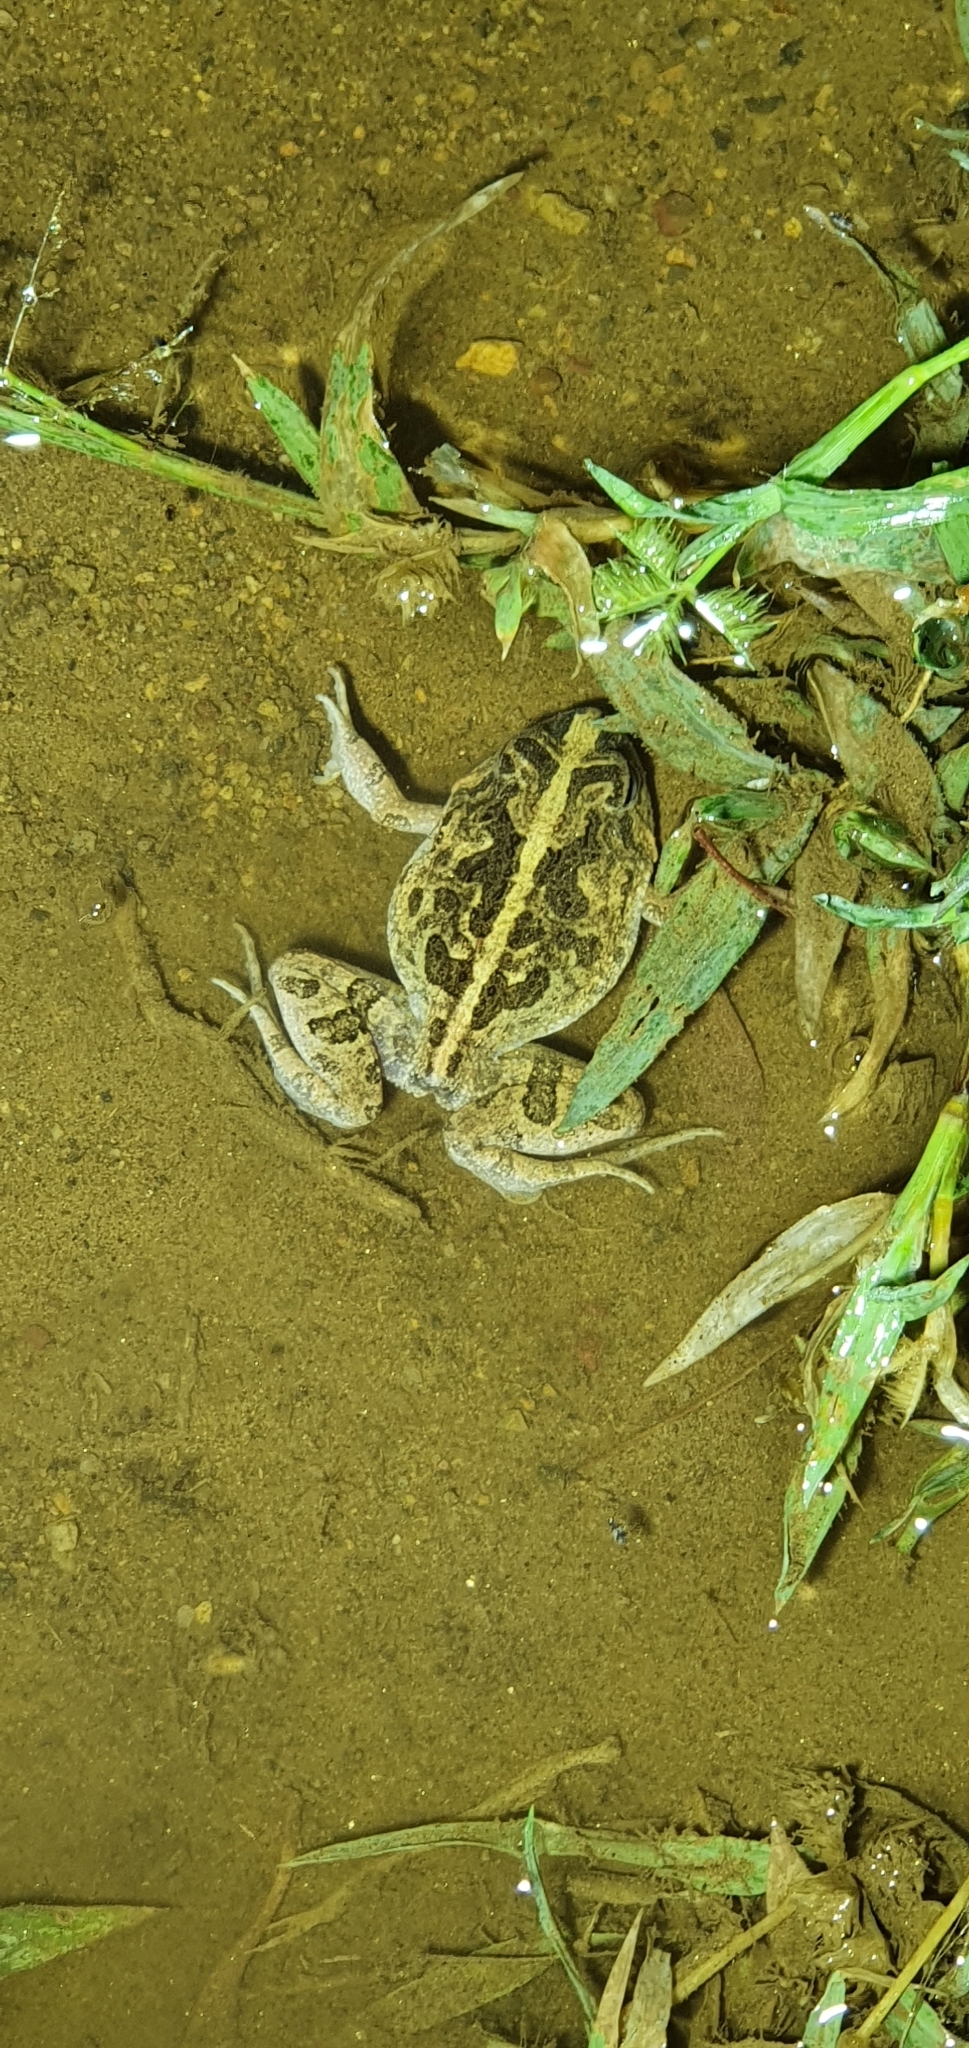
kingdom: Animalia
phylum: Chordata
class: Amphibia
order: Anura
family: Limnodynastidae
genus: Platyplectrum
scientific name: Platyplectrum ornatum
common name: Ornate burrowing frog
